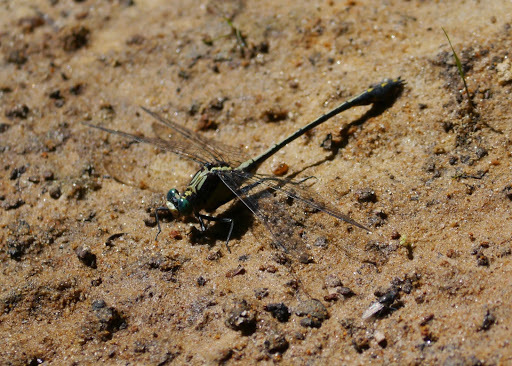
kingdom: Animalia
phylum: Arthropoda
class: Insecta
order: Odonata
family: Gomphidae
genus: Dromogomphus
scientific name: Dromogomphus spinosus
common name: Black-shouldered spinyleg
